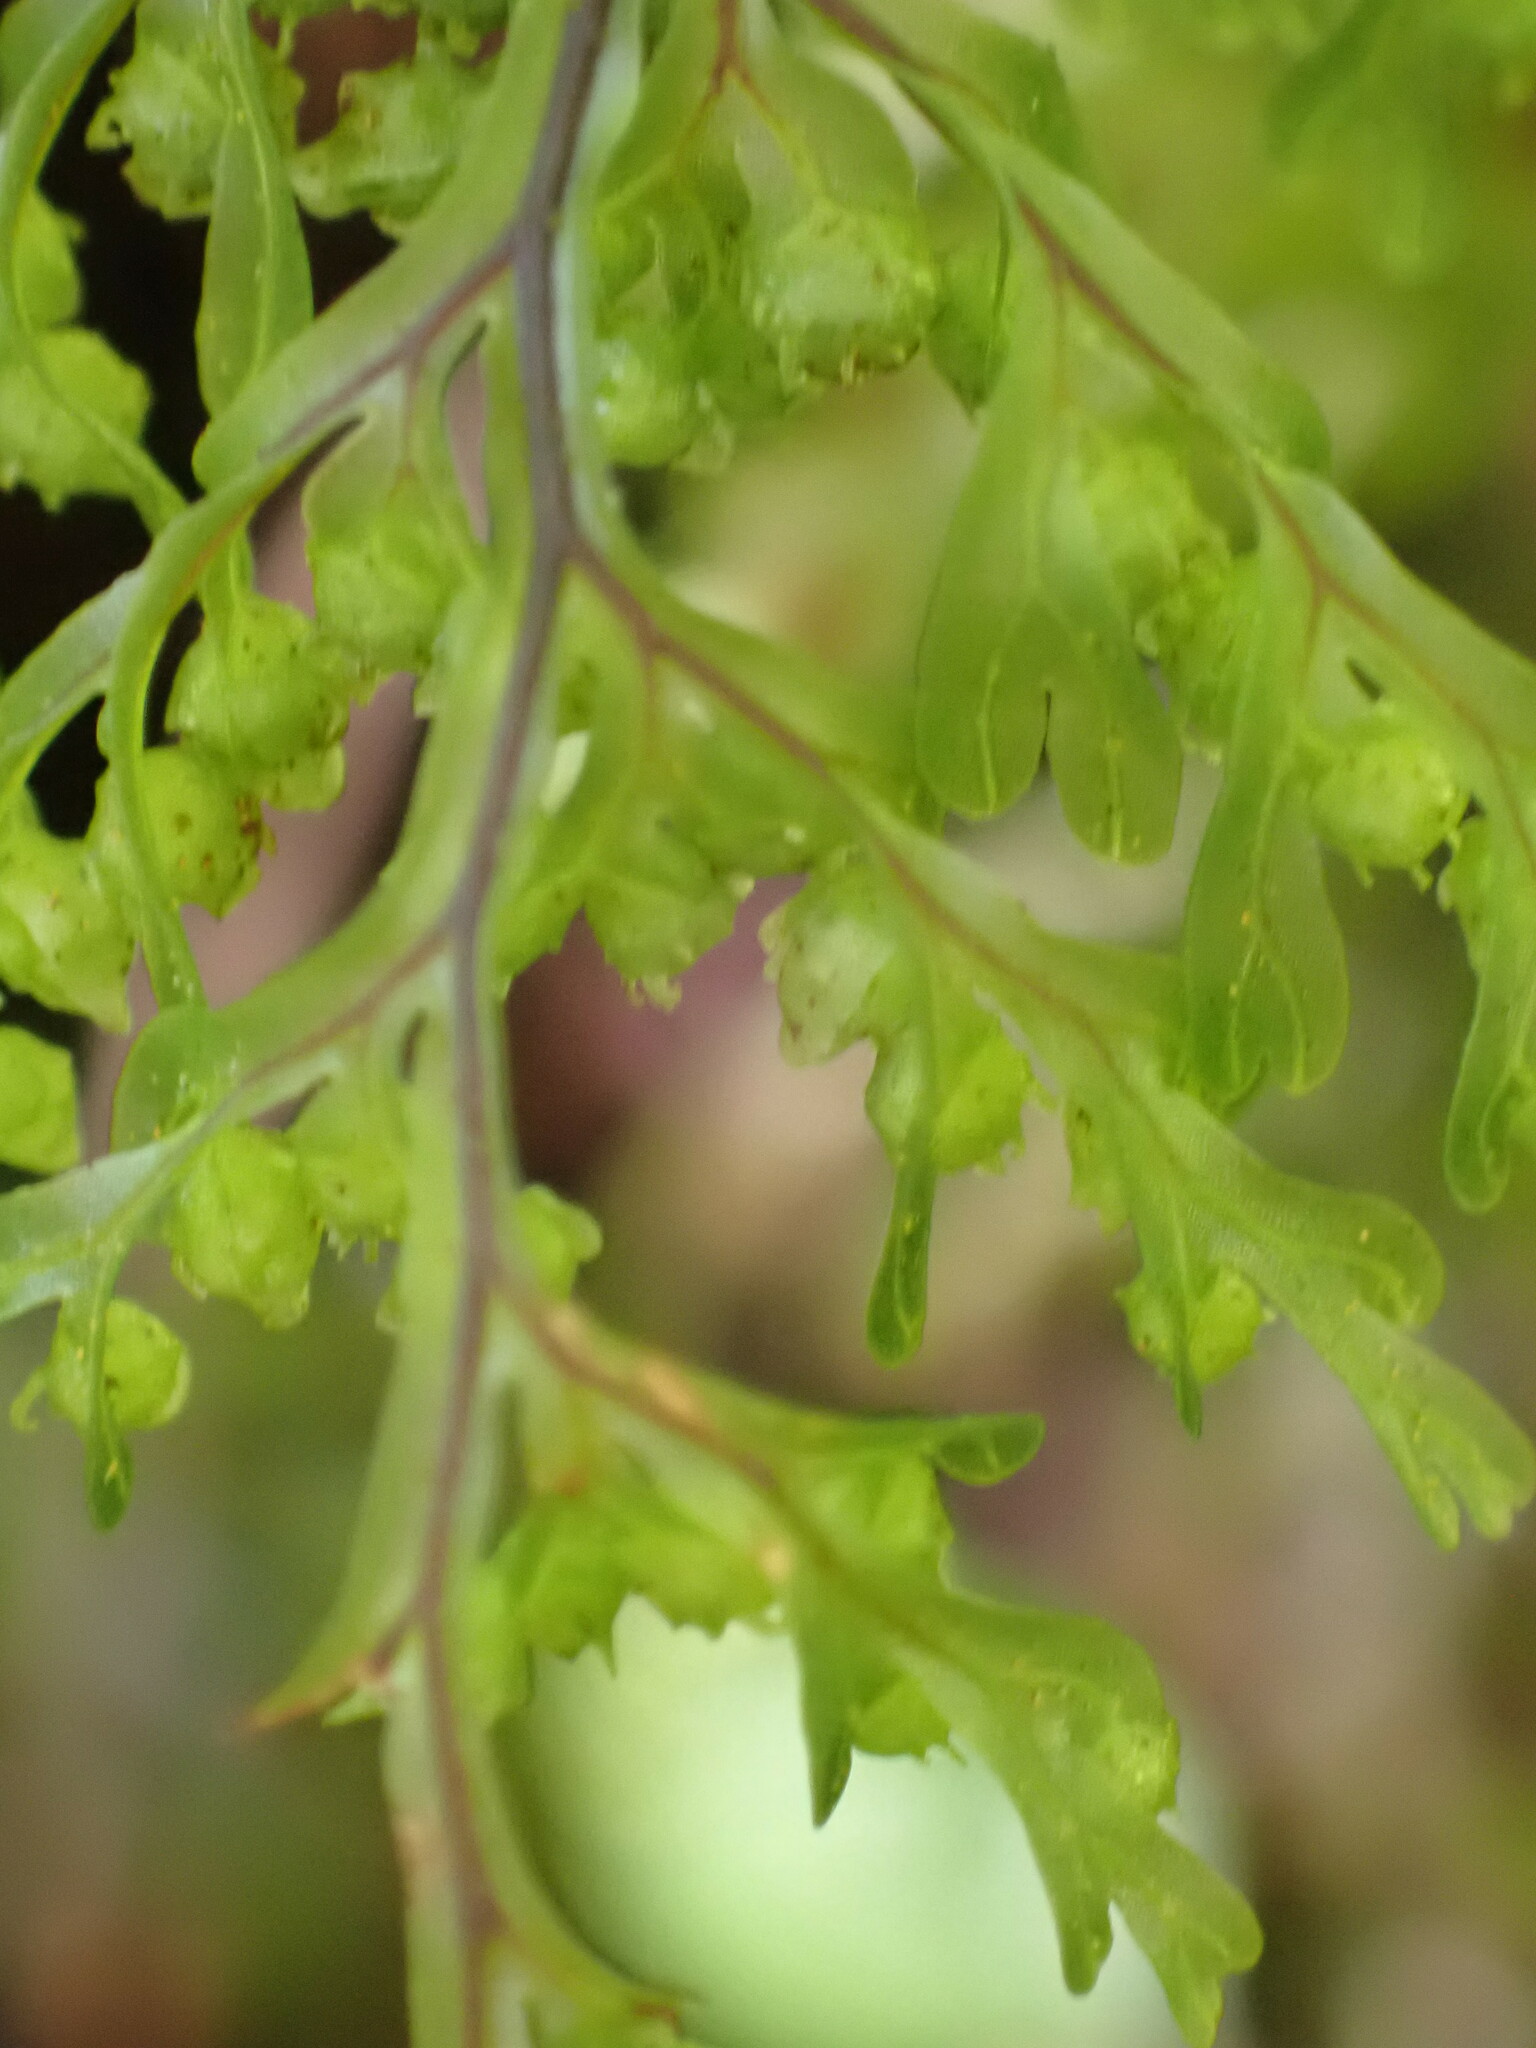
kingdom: Plantae
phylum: Tracheophyta
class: Polypodiopsida
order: Hymenophyllales
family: Hymenophyllaceae
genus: Hymenophyllum
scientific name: Hymenophyllum sanguinolentum
